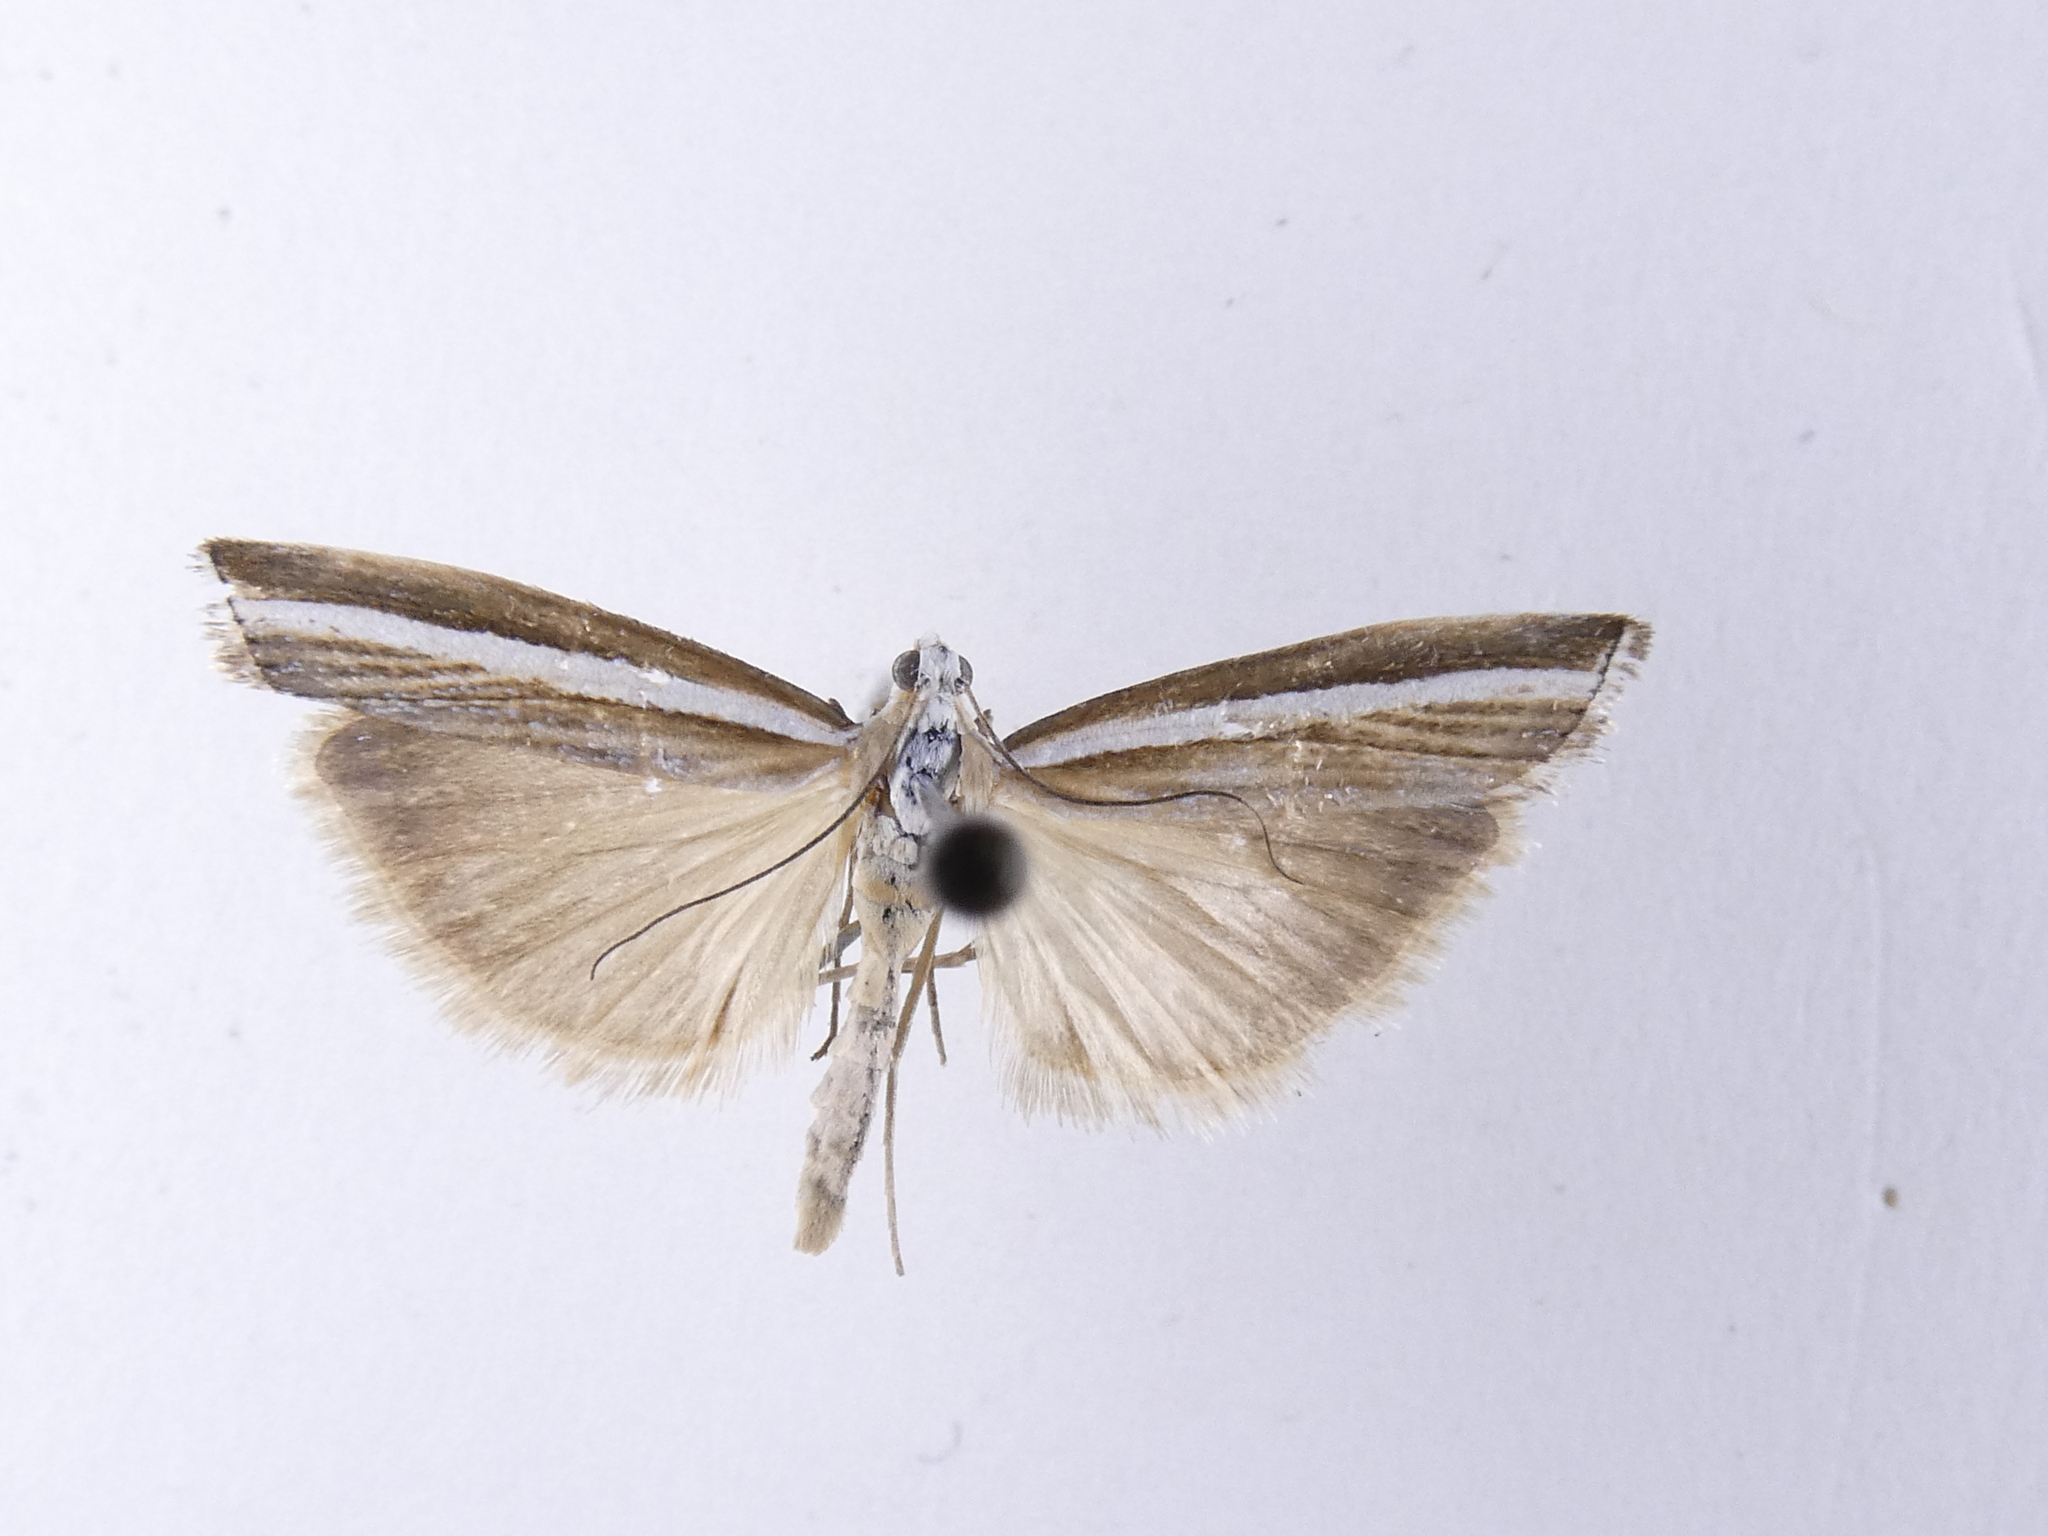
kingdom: Animalia
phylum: Arthropoda
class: Insecta
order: Lepidoptera
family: Crambidae
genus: Orocrambus
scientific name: Orocrambus vittellus
